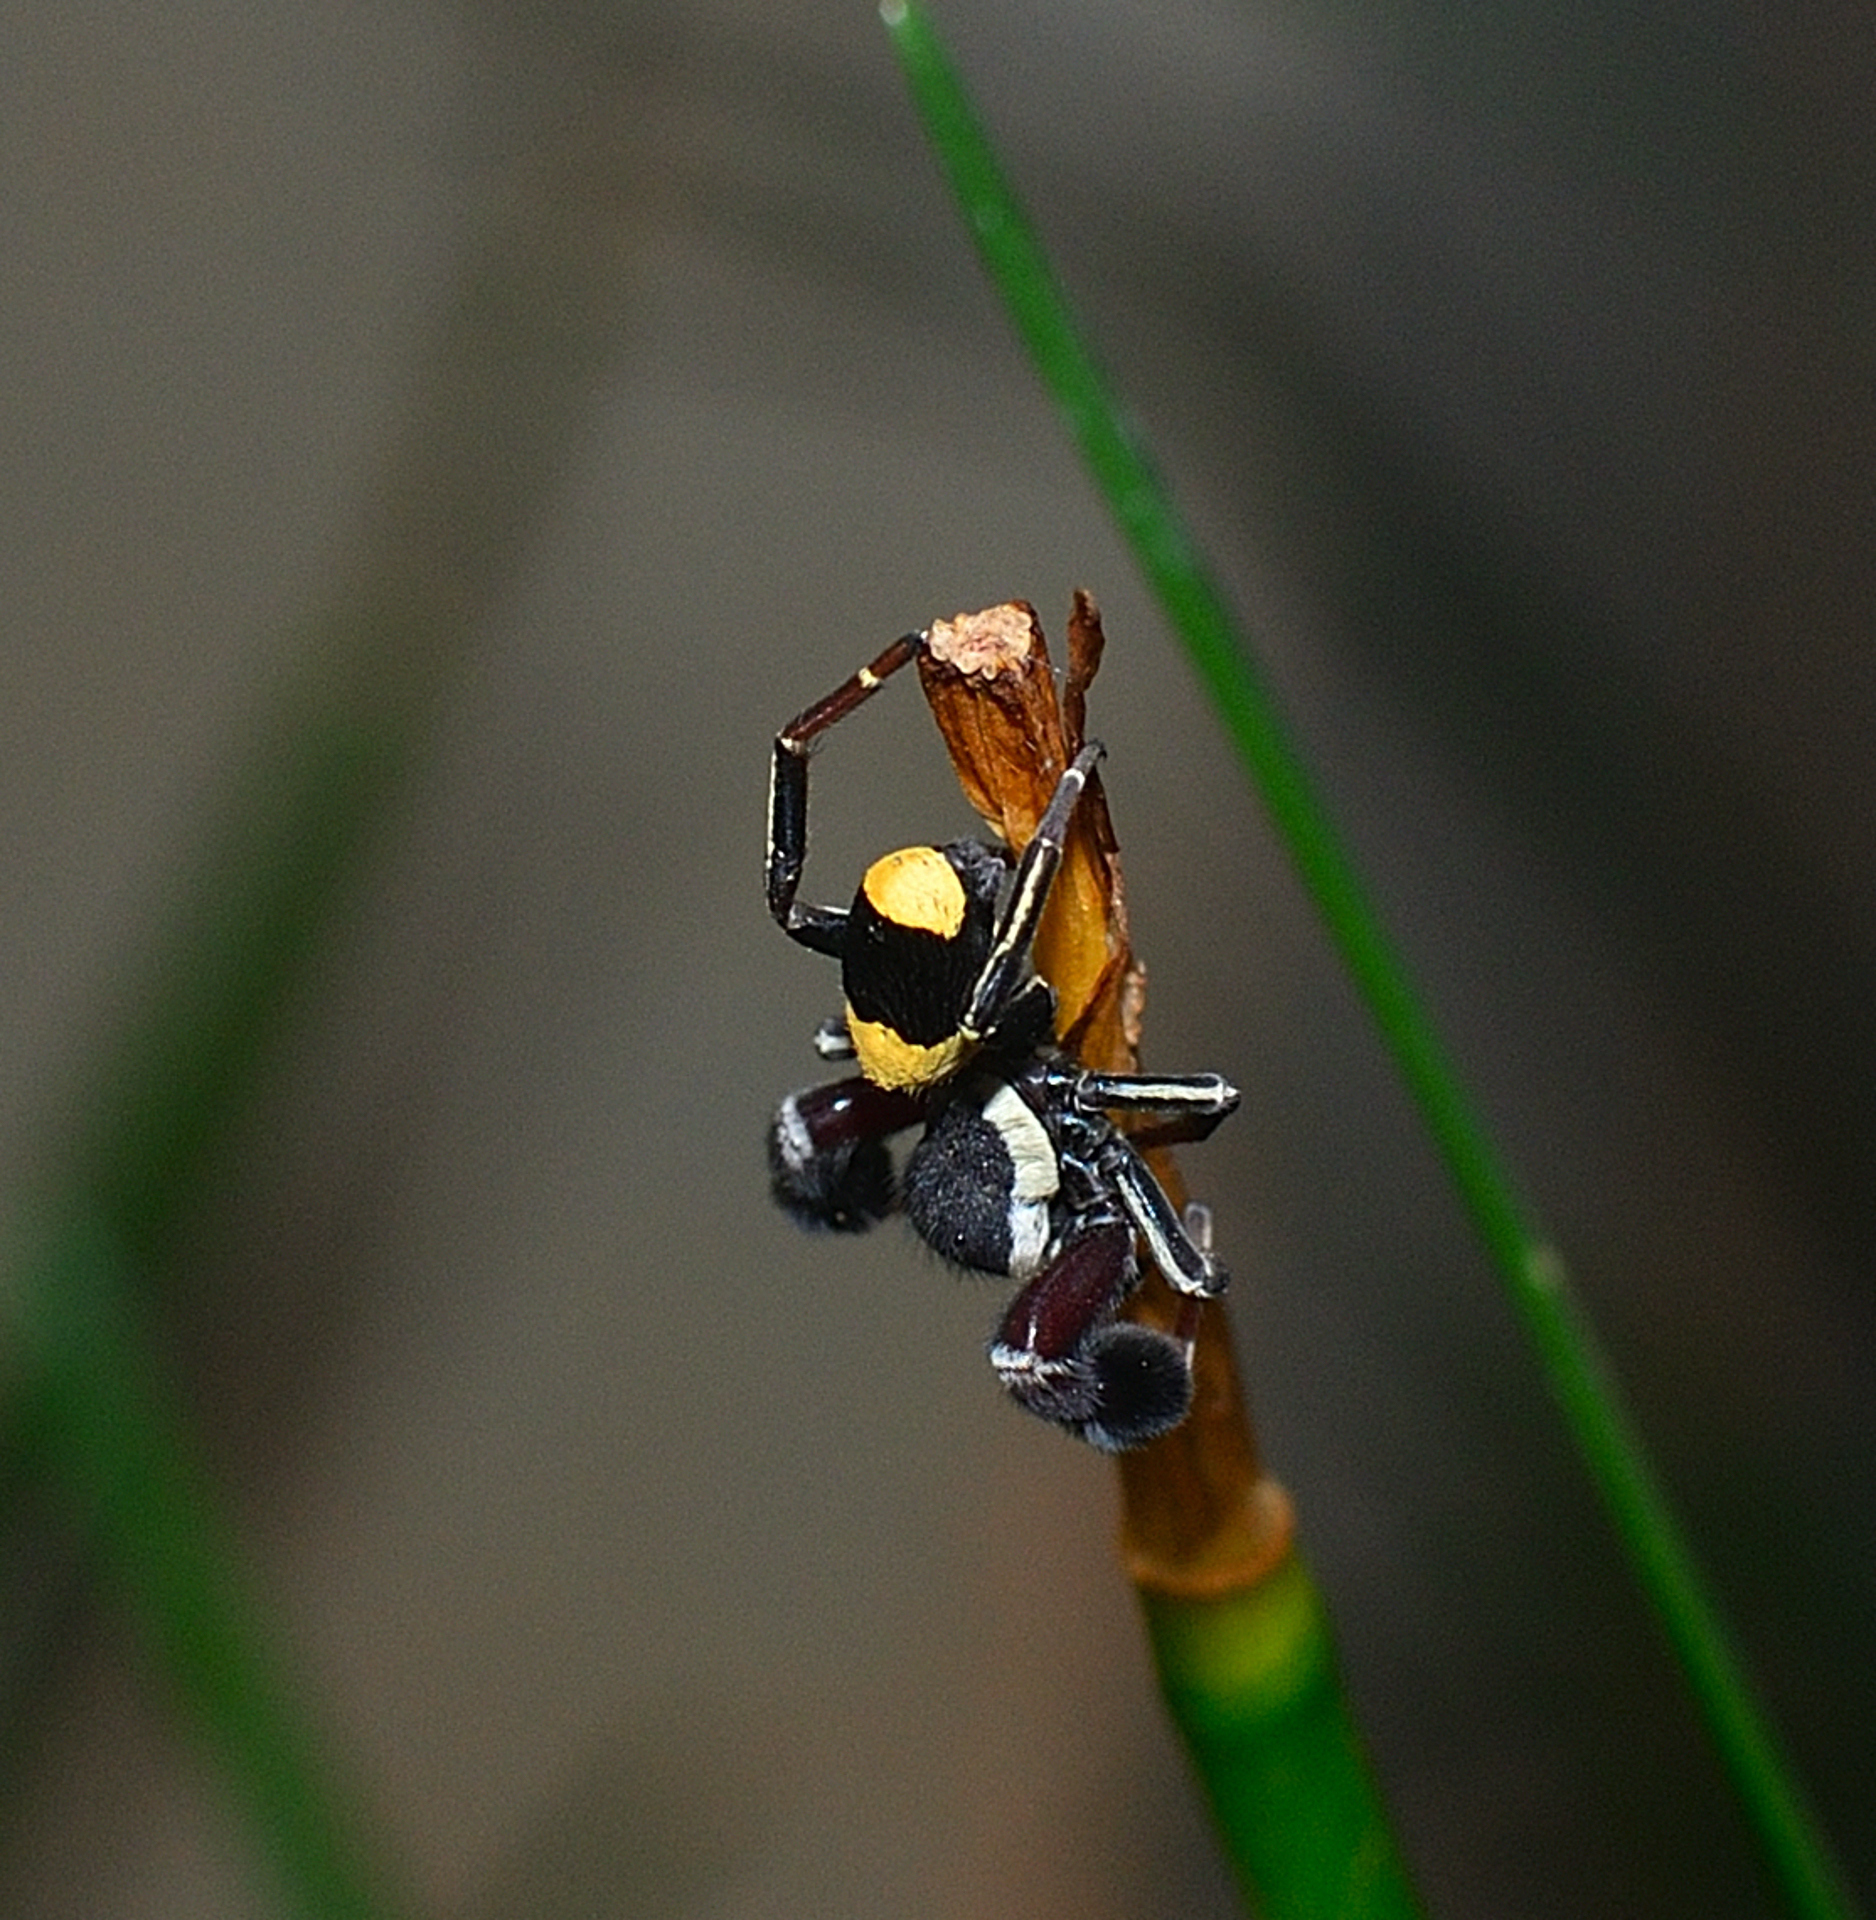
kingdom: Animalia
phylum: Arthropoda
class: Arachnida
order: Araneae
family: Eresidae
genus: Stegodyphus
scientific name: Stegodyphus tibialis
